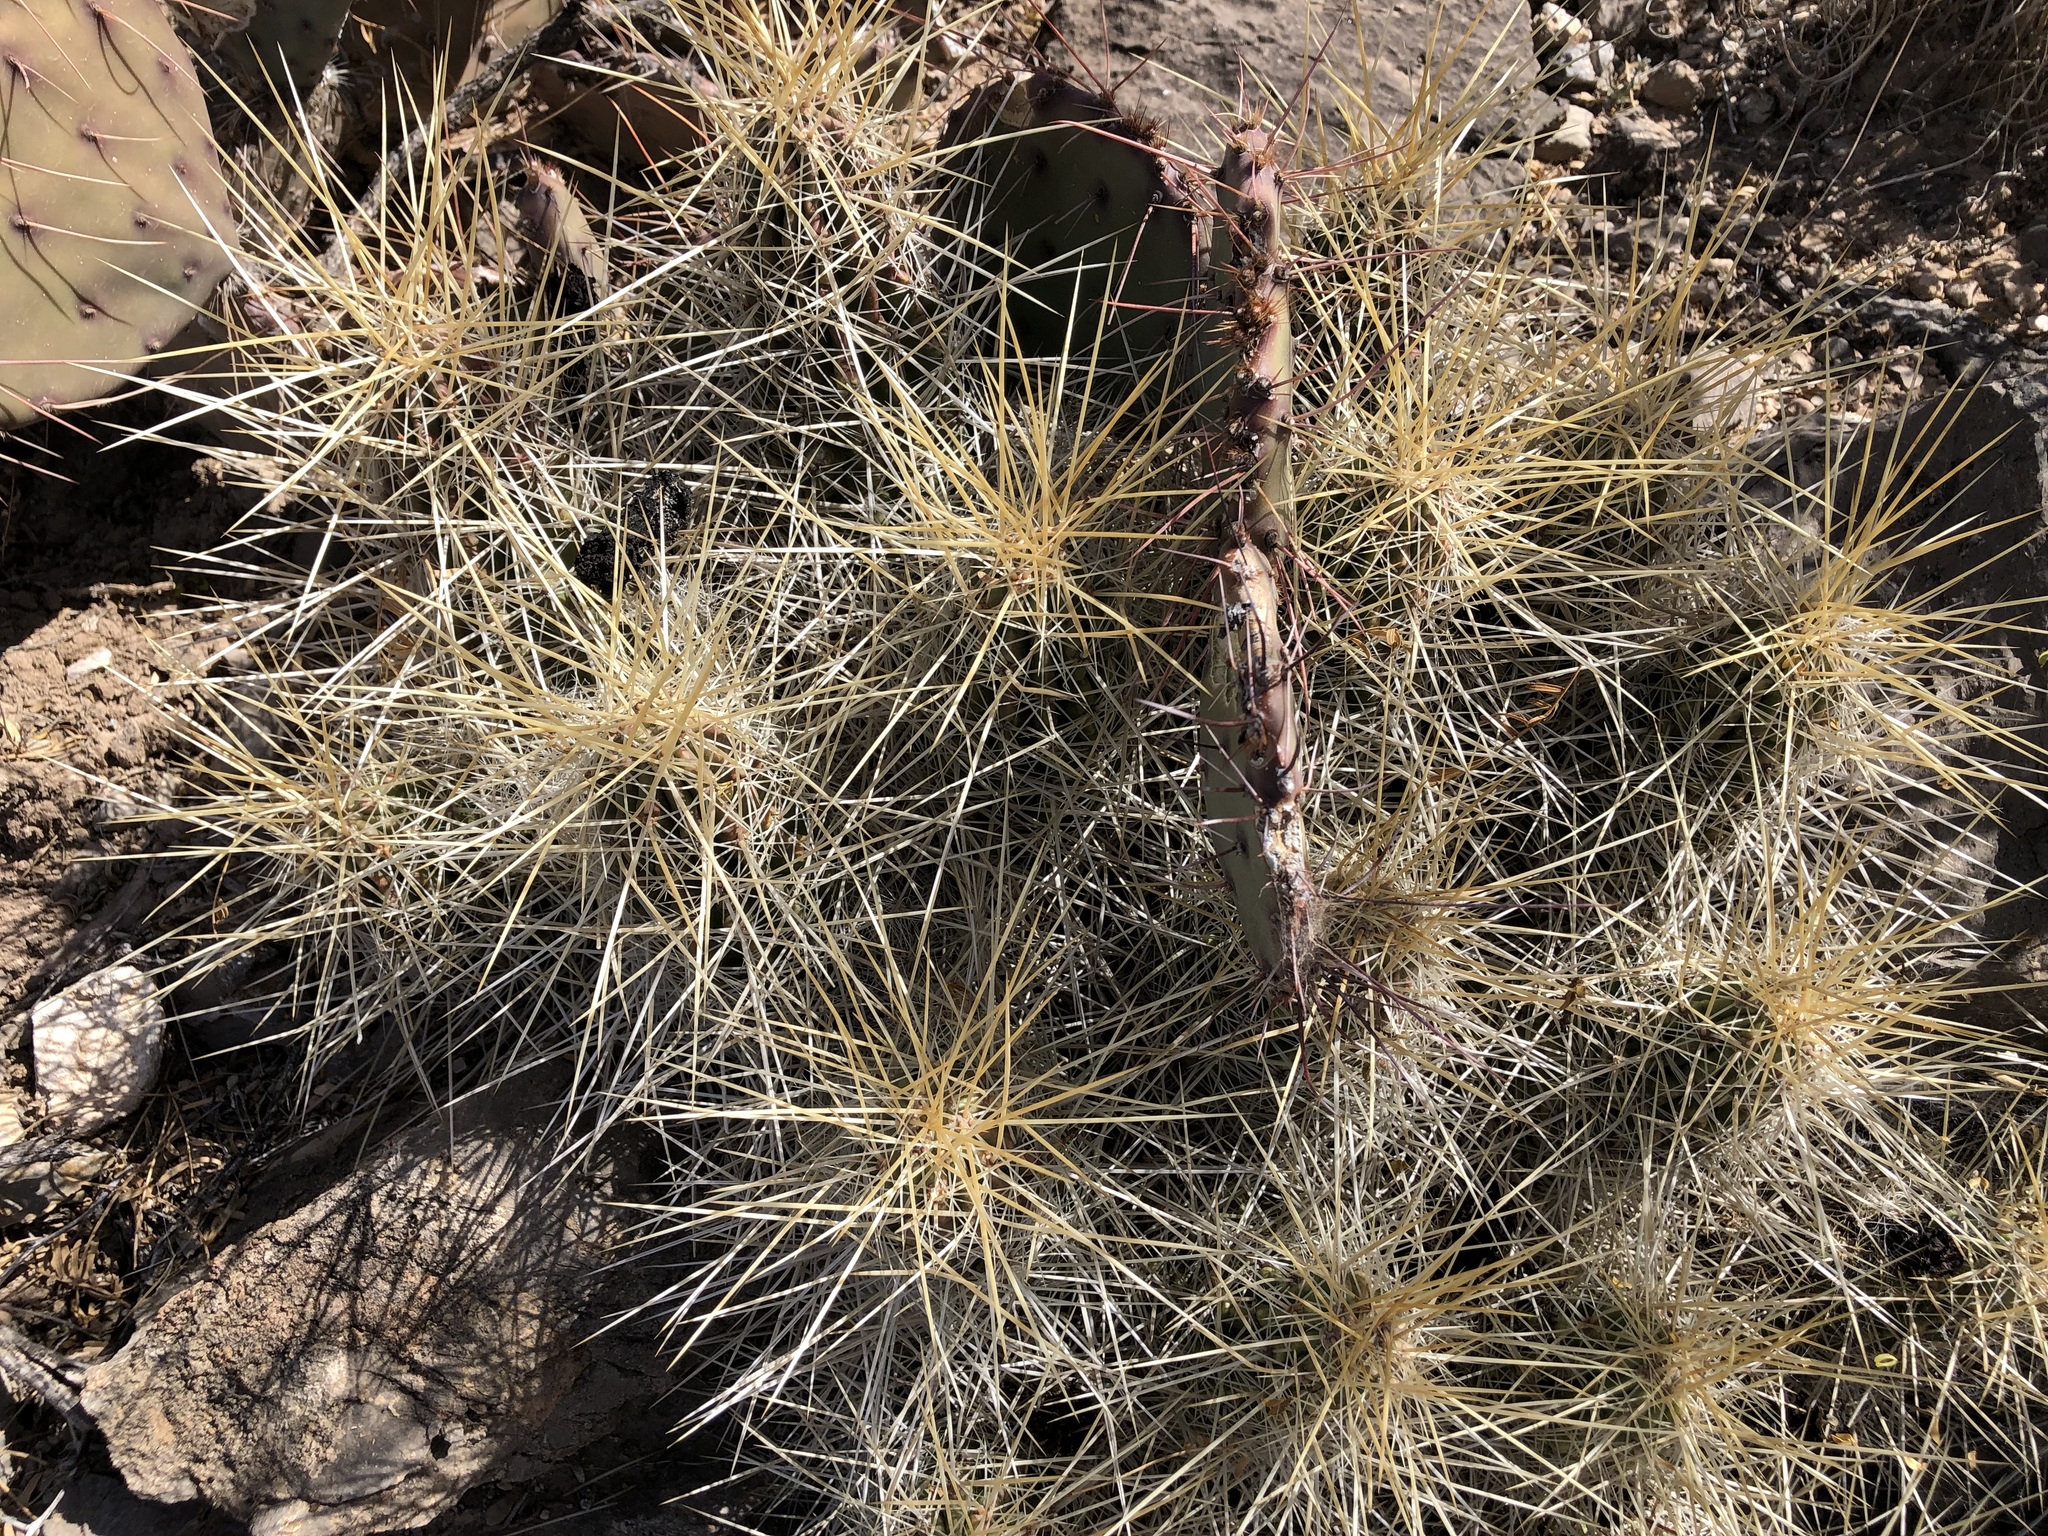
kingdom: Plantae
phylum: Tracheophyta
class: Magnoliopsida
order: Caryophyllales
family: Cactaceae
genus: Echinocereus
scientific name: Echinocereus stramineus
